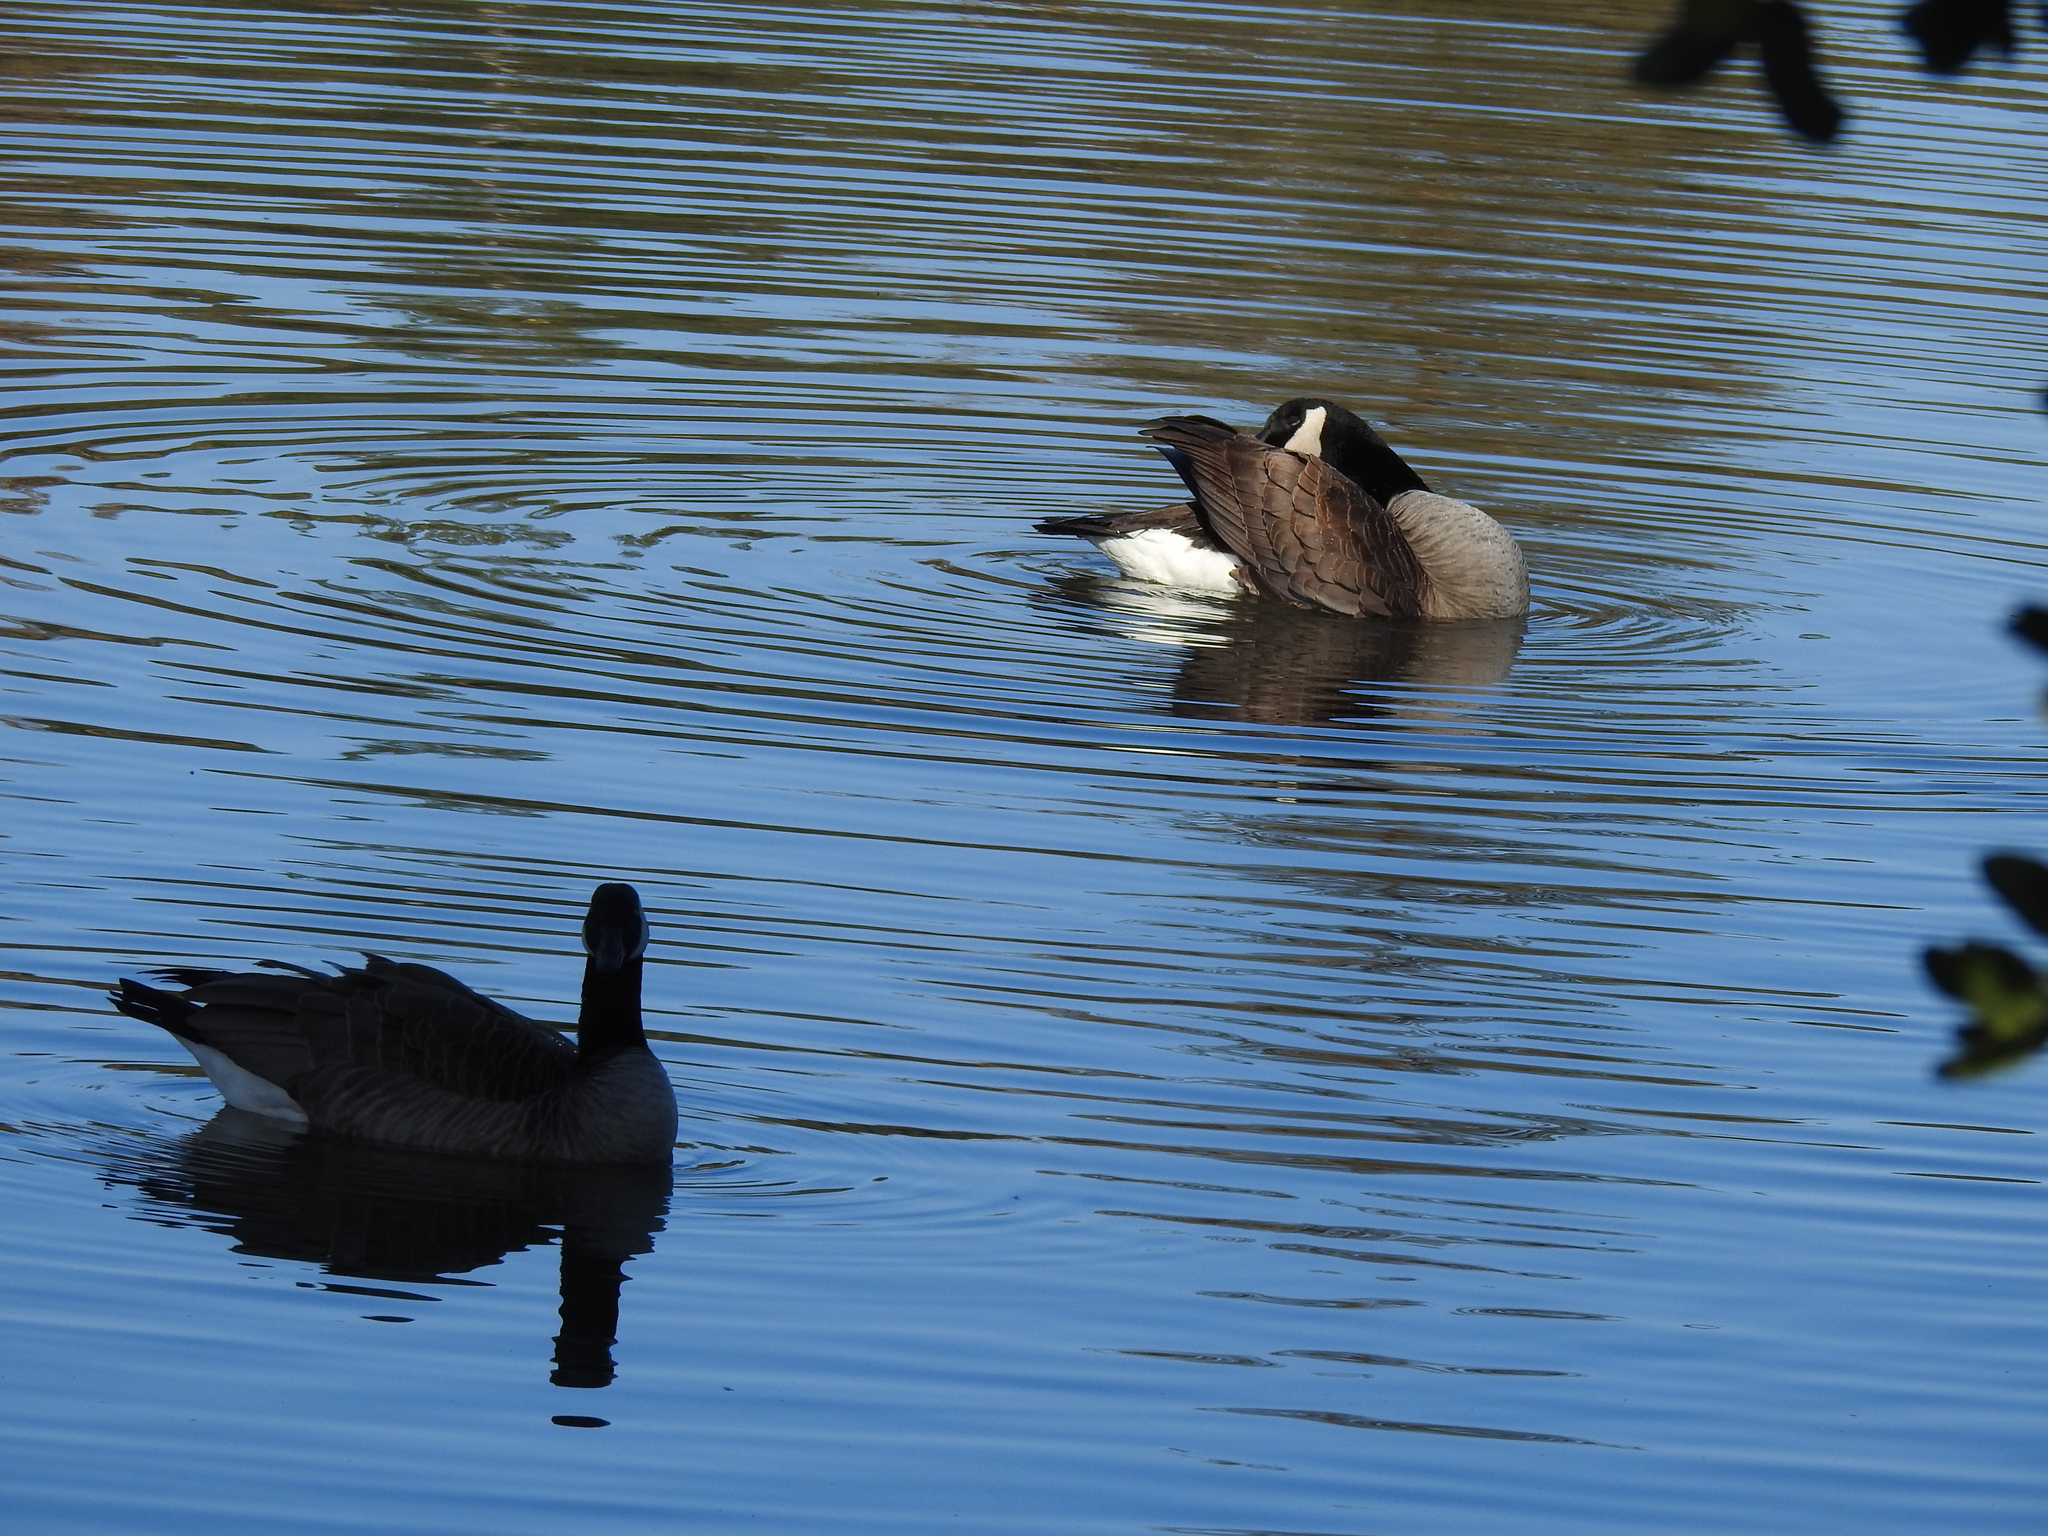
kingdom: Animalia
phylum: Chordata
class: Aves
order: Anseriformes
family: Anatidae
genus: Branta
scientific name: Branta canadensis
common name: Canada goose
